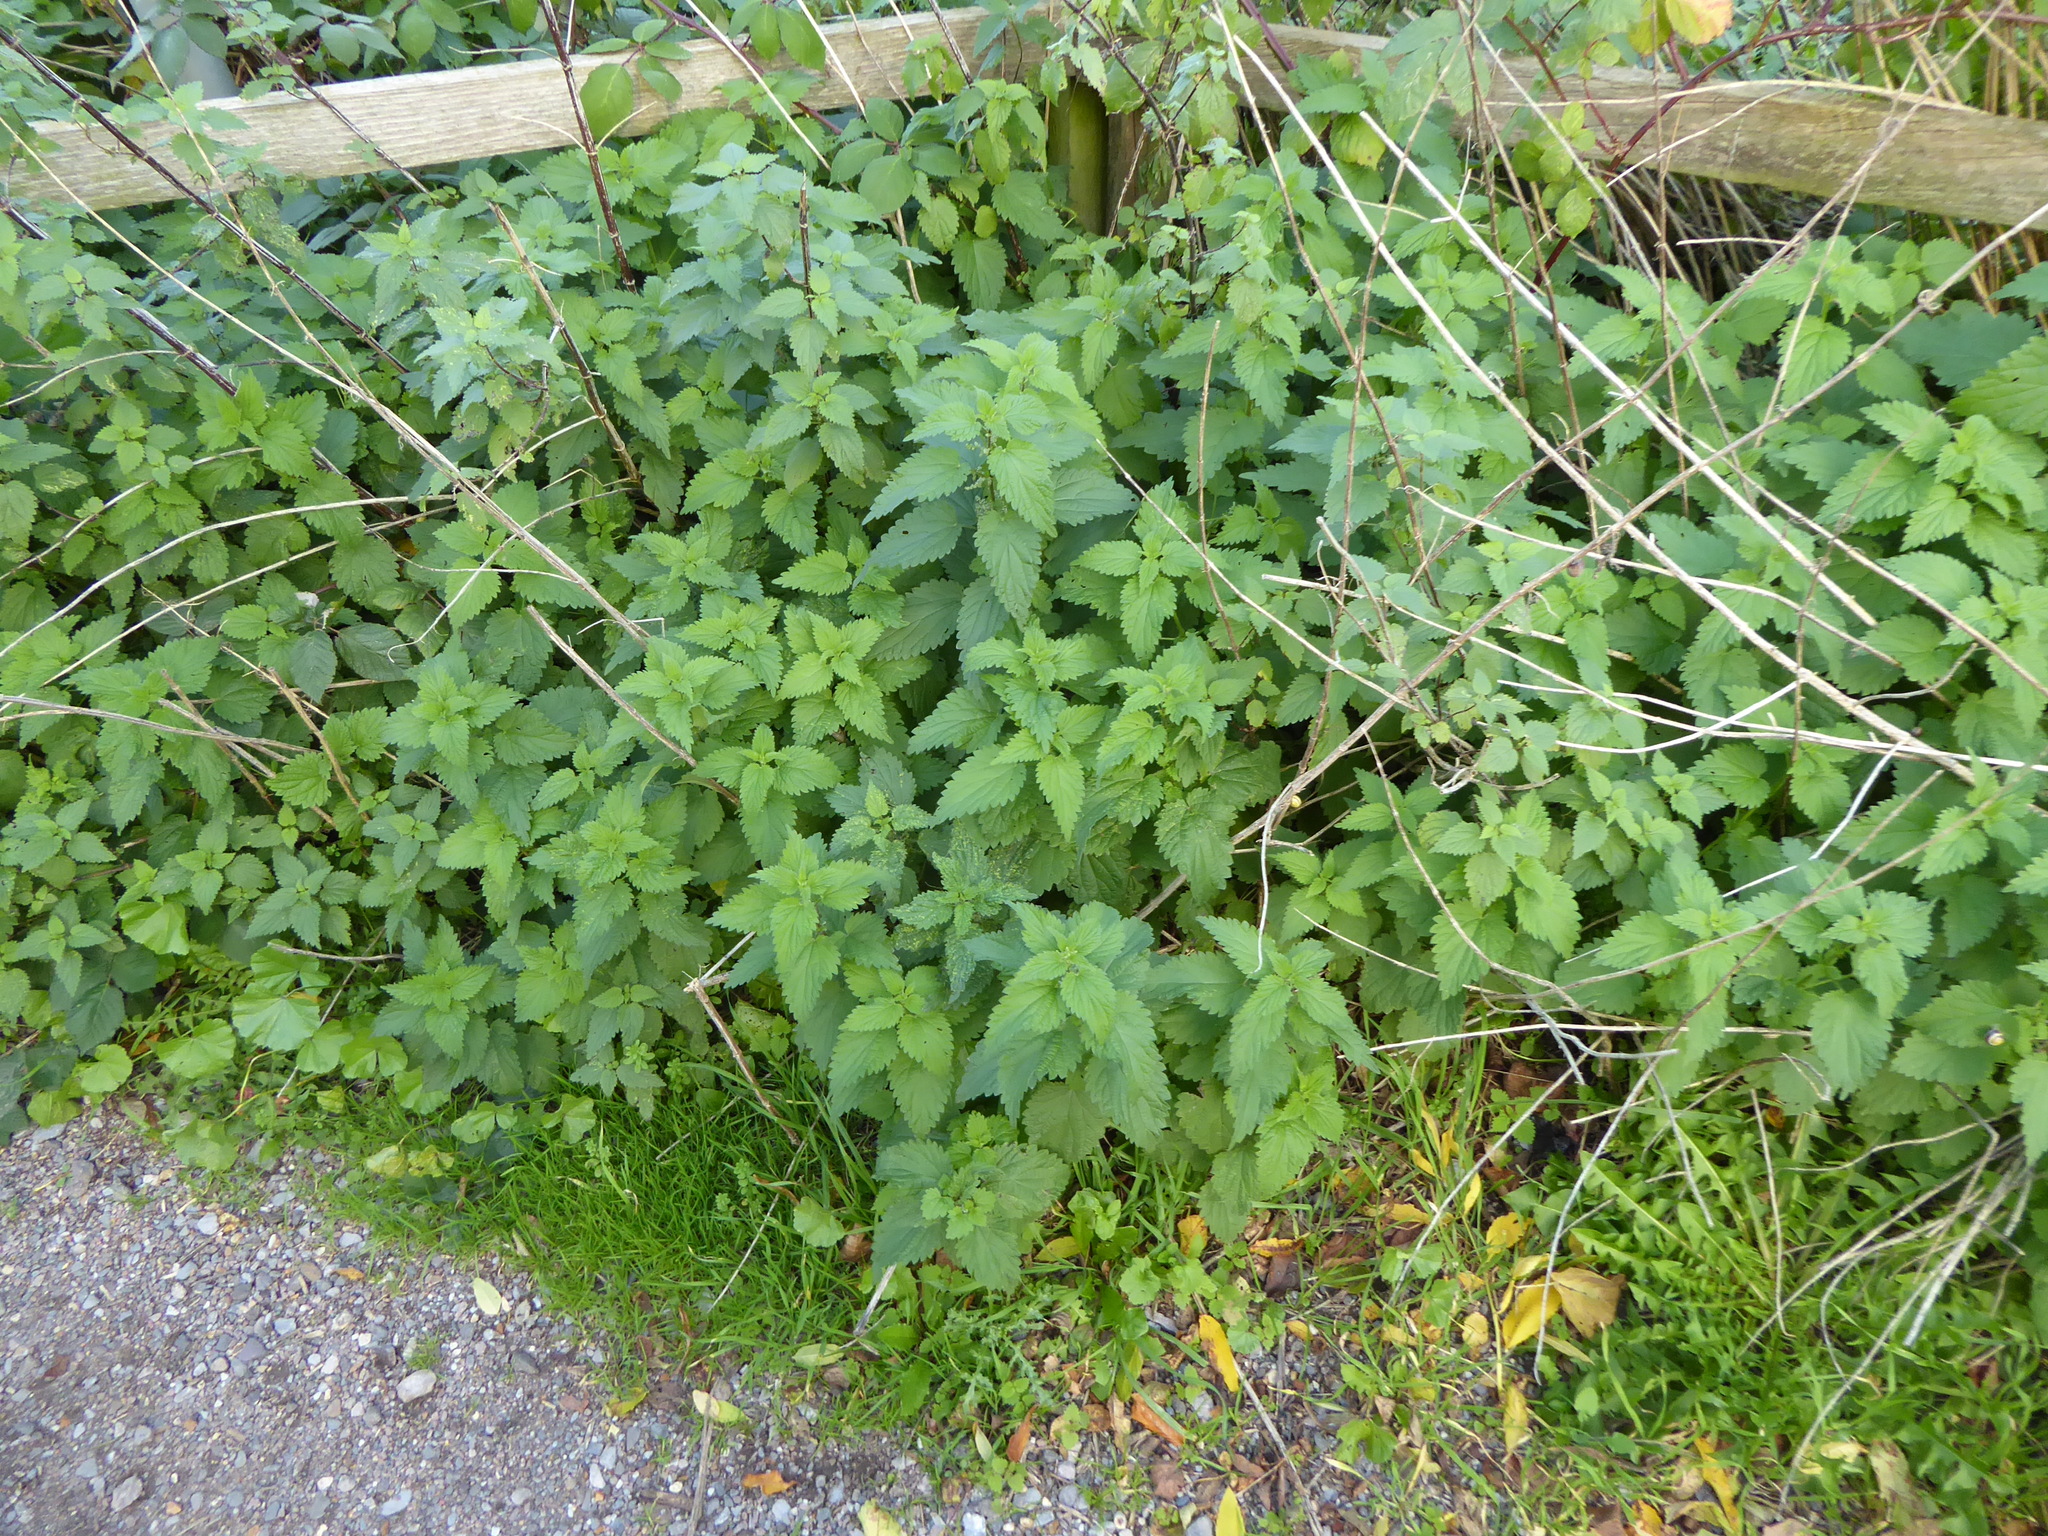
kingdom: Plantae
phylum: Tracheophyta
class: Magnoliopsida
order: Rosales
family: Urticaceae
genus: Urtica
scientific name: Urtica dioica
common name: Common nettle
